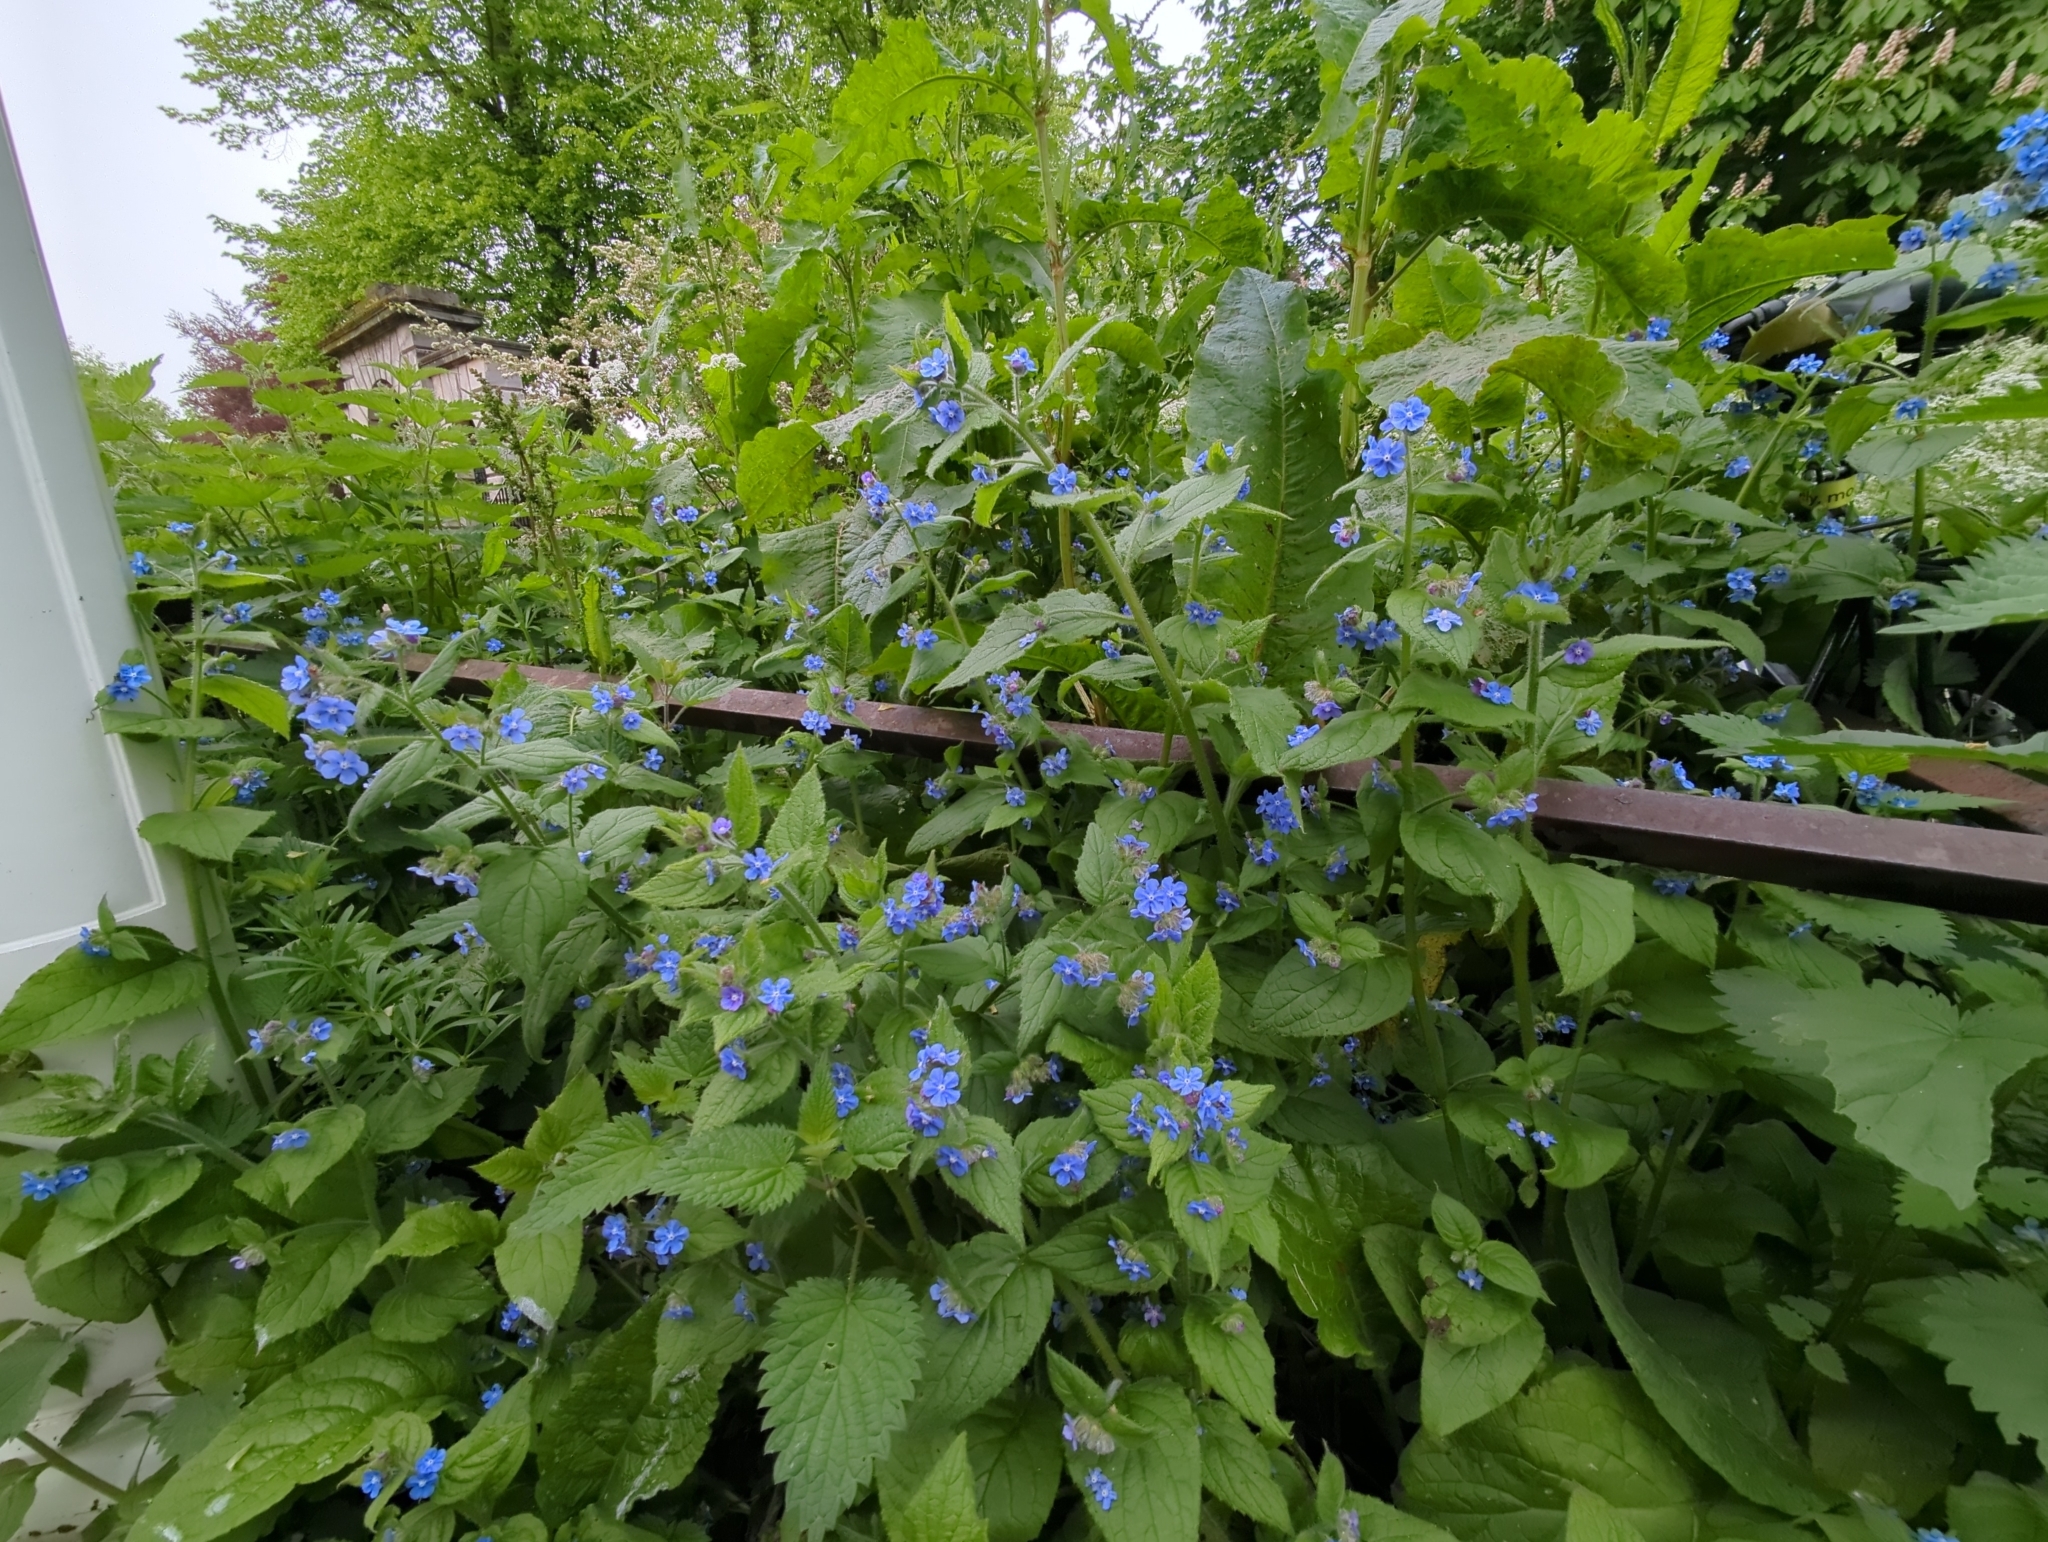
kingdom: Plantae
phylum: Tracheophyta
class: Magnoliopsida
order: Boraginales
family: Boraginaceae
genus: Pentaglottis
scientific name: Pentaglottis sempervirens
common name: Green alkanet
